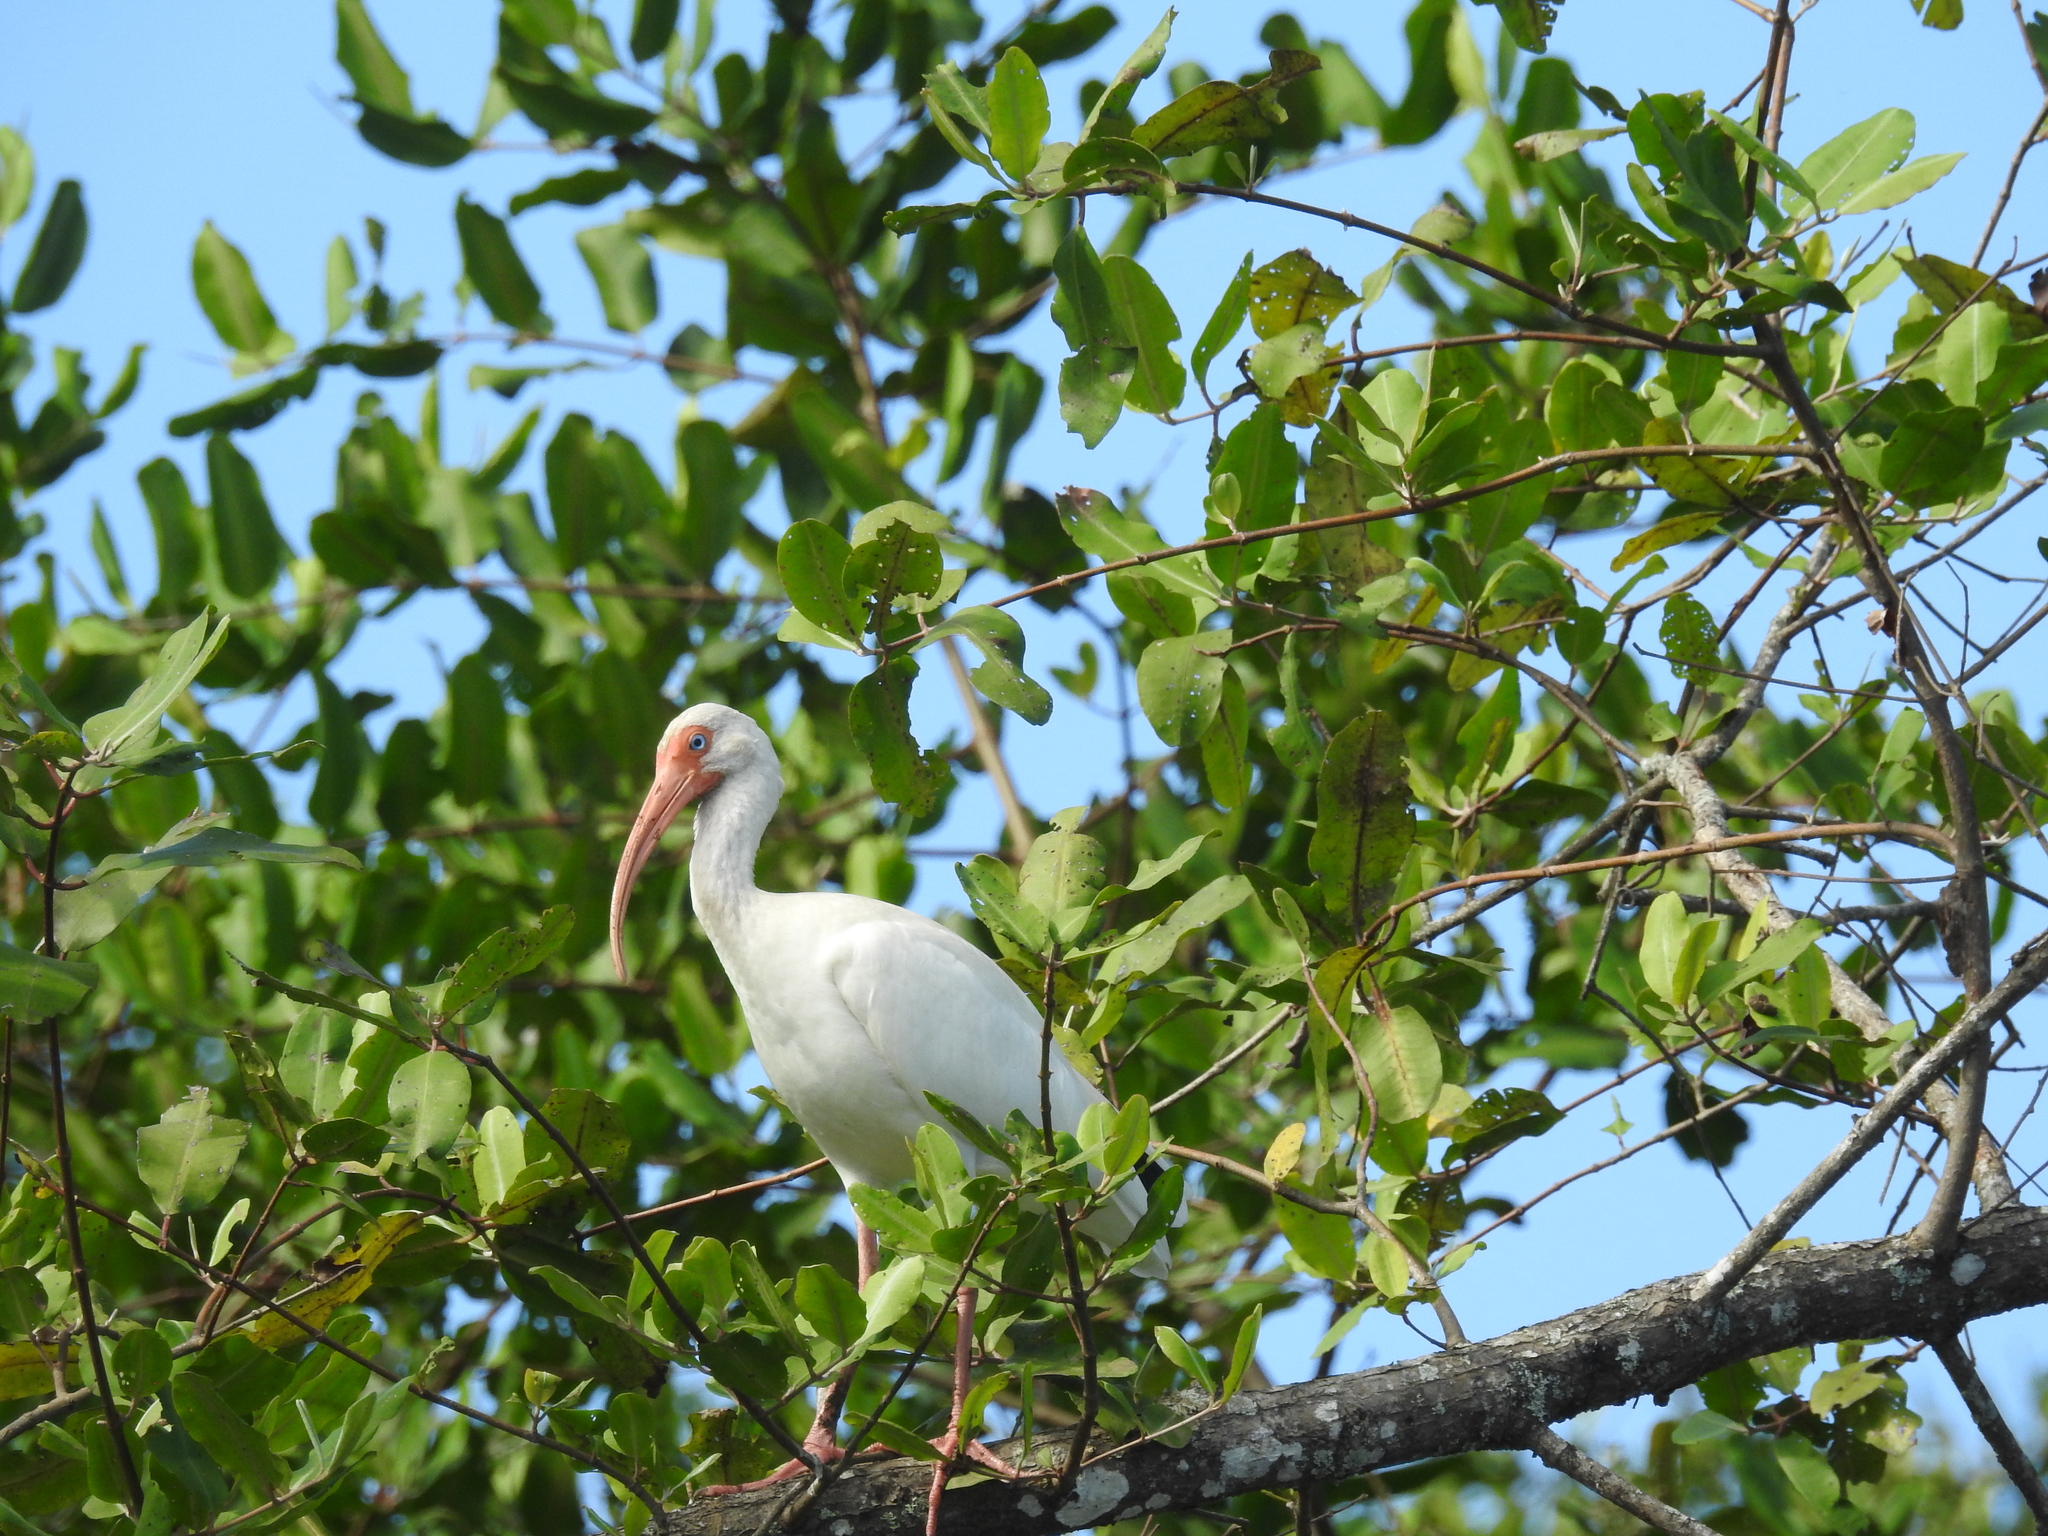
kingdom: Animalia
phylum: Chordata
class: Aves
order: Pelecaniformes
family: Threskiornithidae
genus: Eudocimus
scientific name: Eudocimus albus
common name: White ibis
